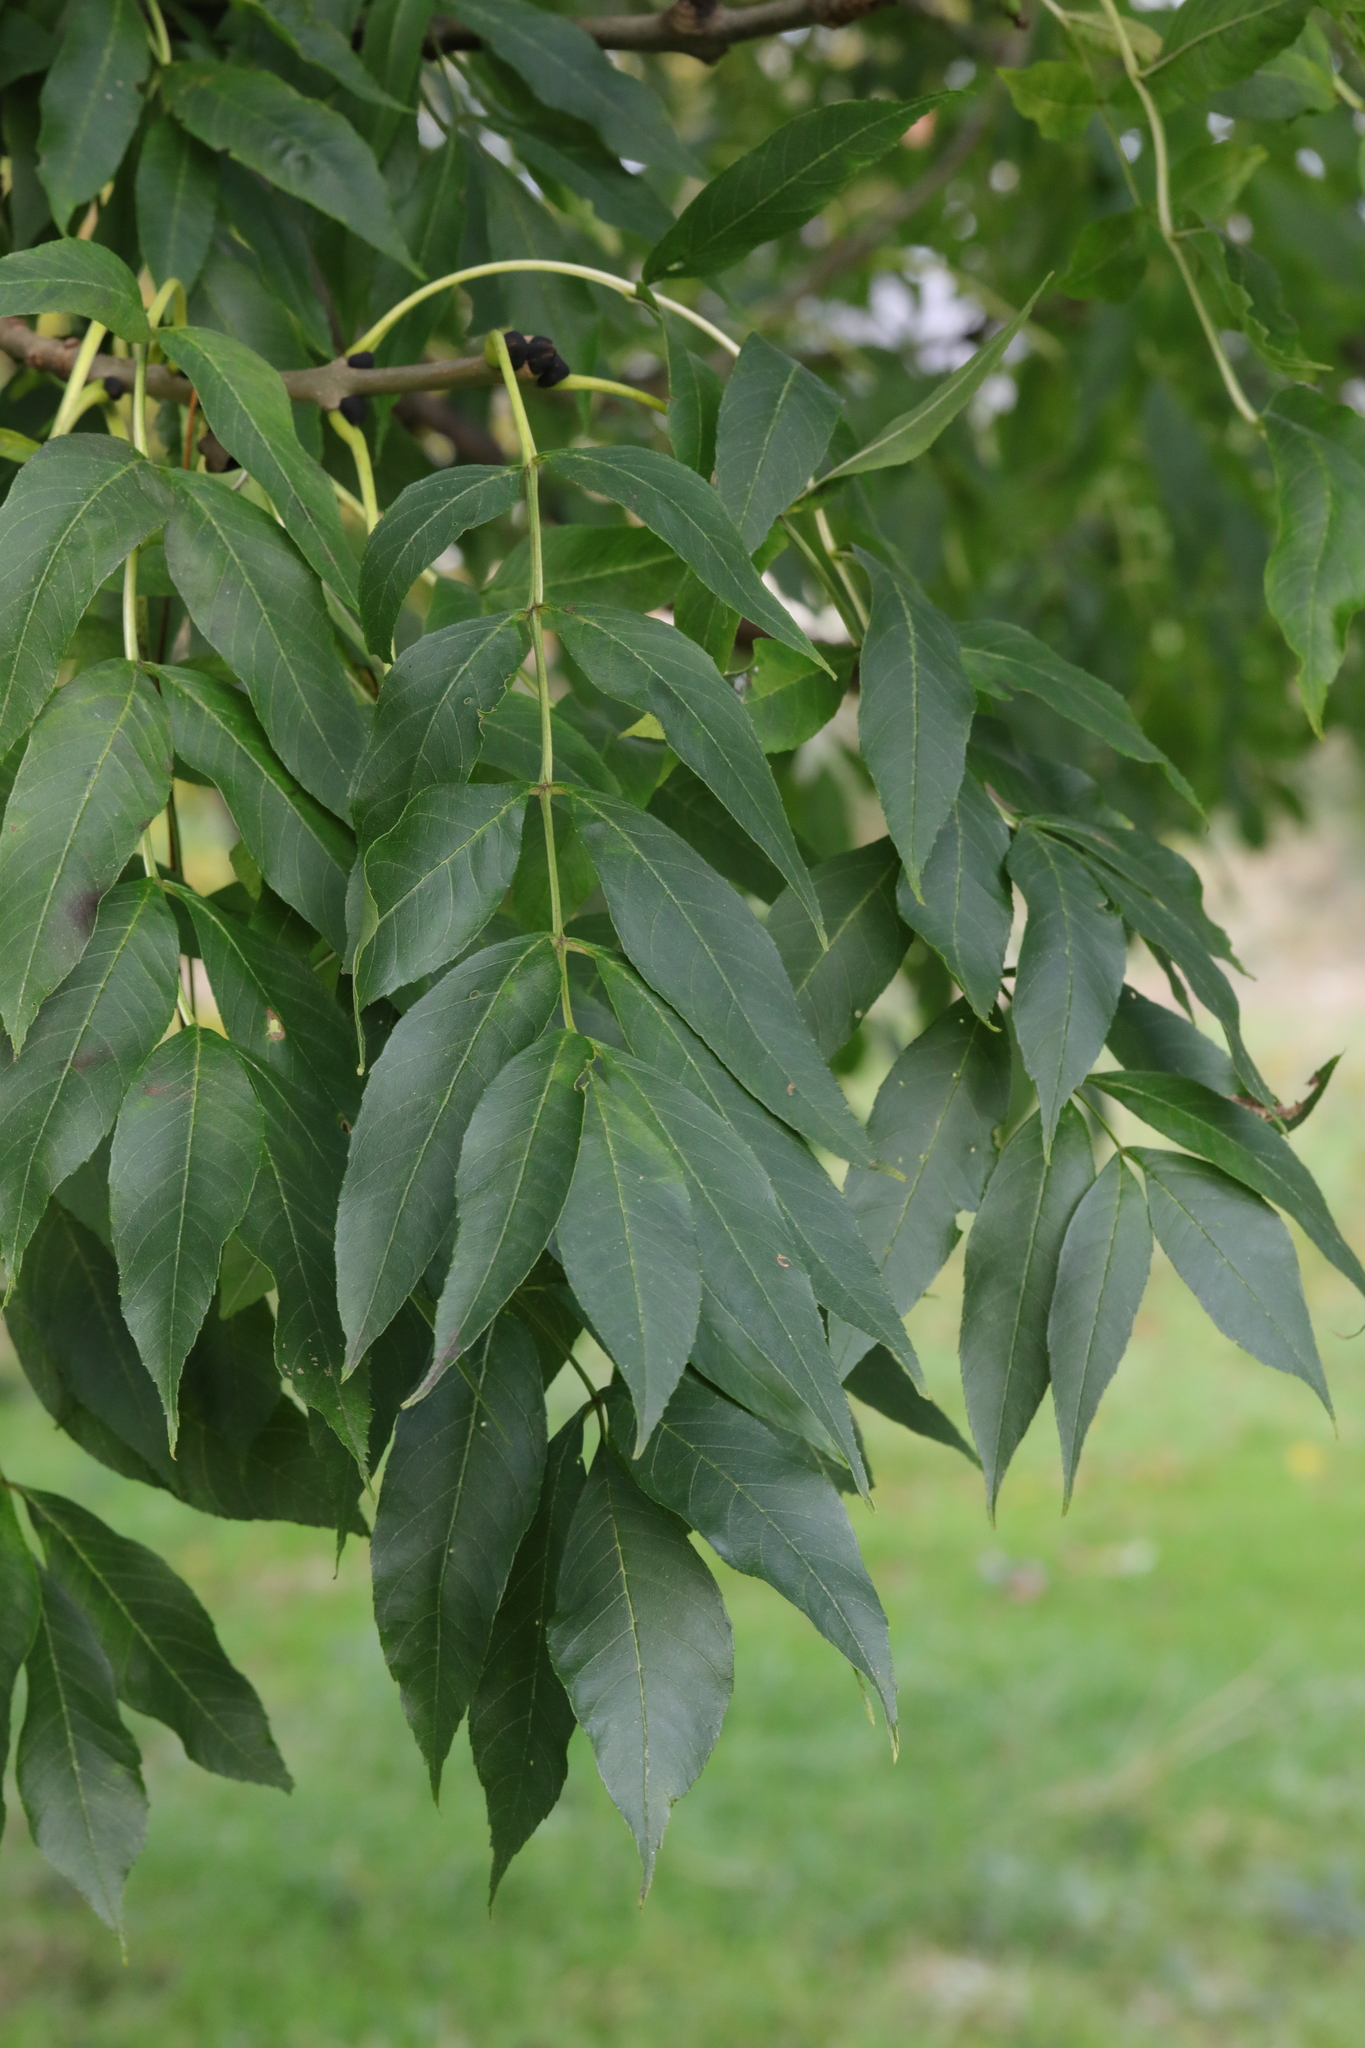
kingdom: Plantae
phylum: Tracheophyta
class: Magnoliopsida
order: Lamiales
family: Oleaceae
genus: Fraxinus
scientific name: Fraxinus excelsior
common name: European ash
